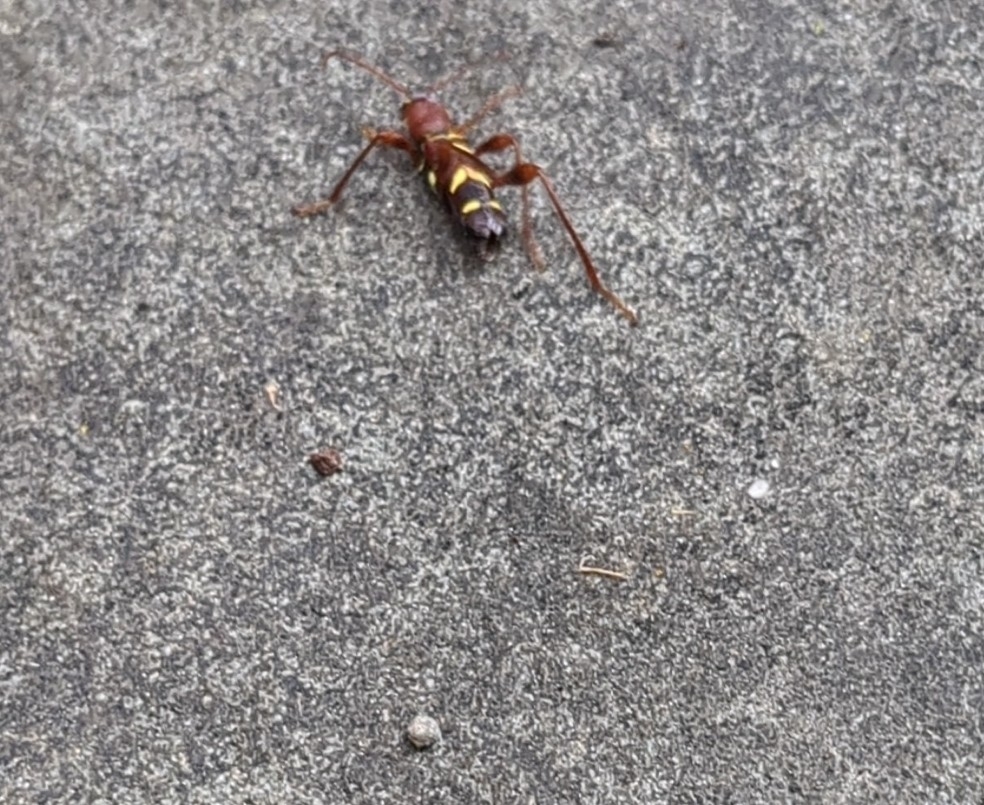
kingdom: Animalia
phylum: Arthropoda
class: Insecta
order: Coleoptera
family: Cerambycidae
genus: Neoclytus
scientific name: Neoclytus acuminatus
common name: Read-headed ash borer
